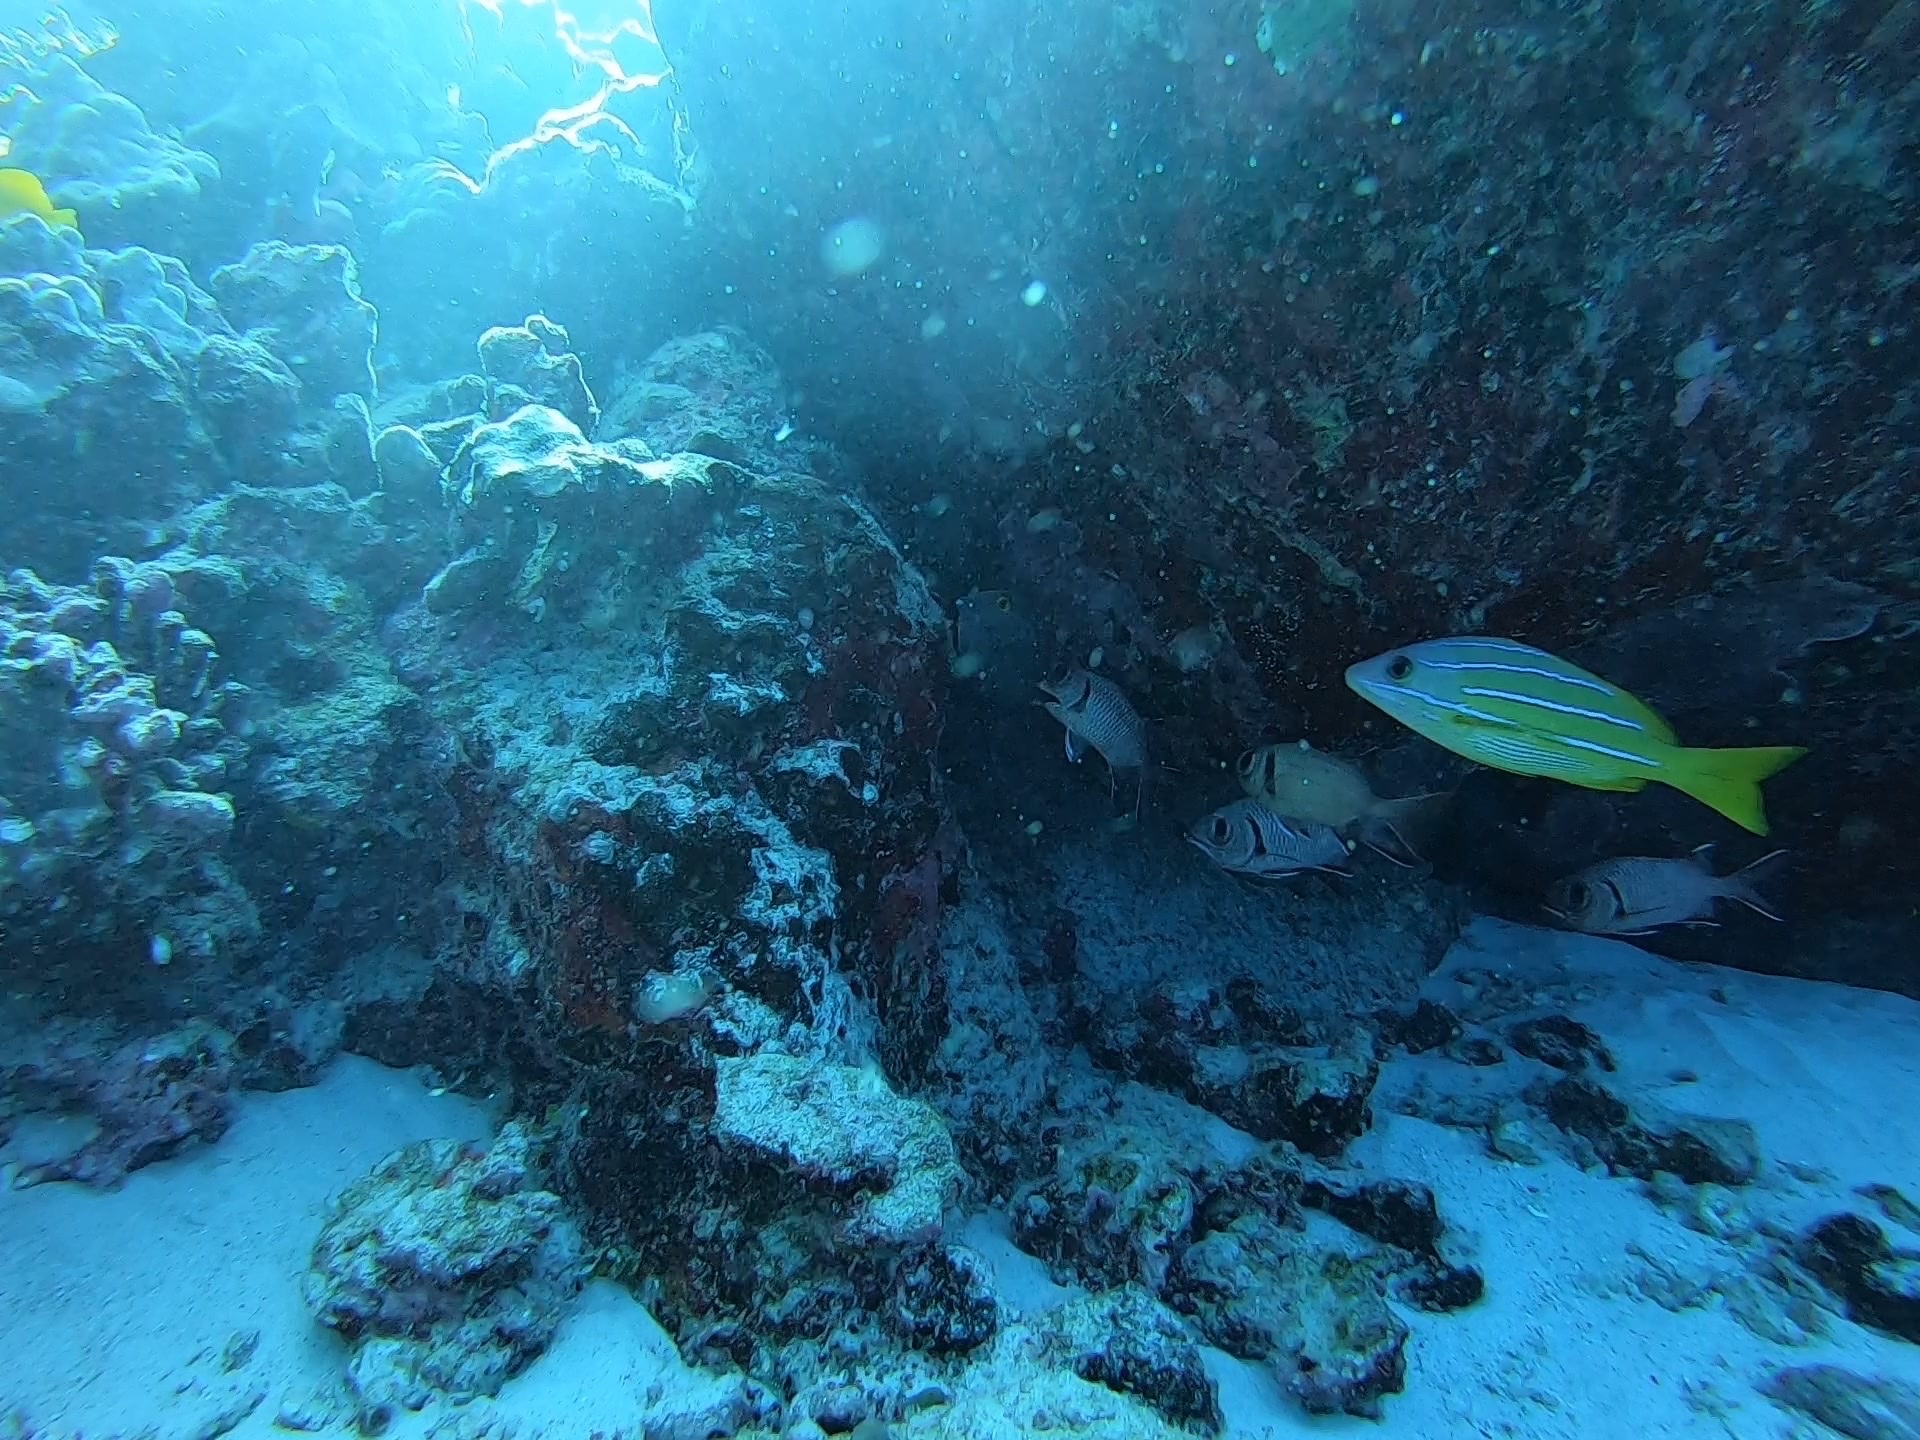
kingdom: Animalia
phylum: Chordata
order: Perciformes
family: Lutjanidae
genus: Lutjanus
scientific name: Lutjanus kasmira
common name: Common bluestripe snapper
